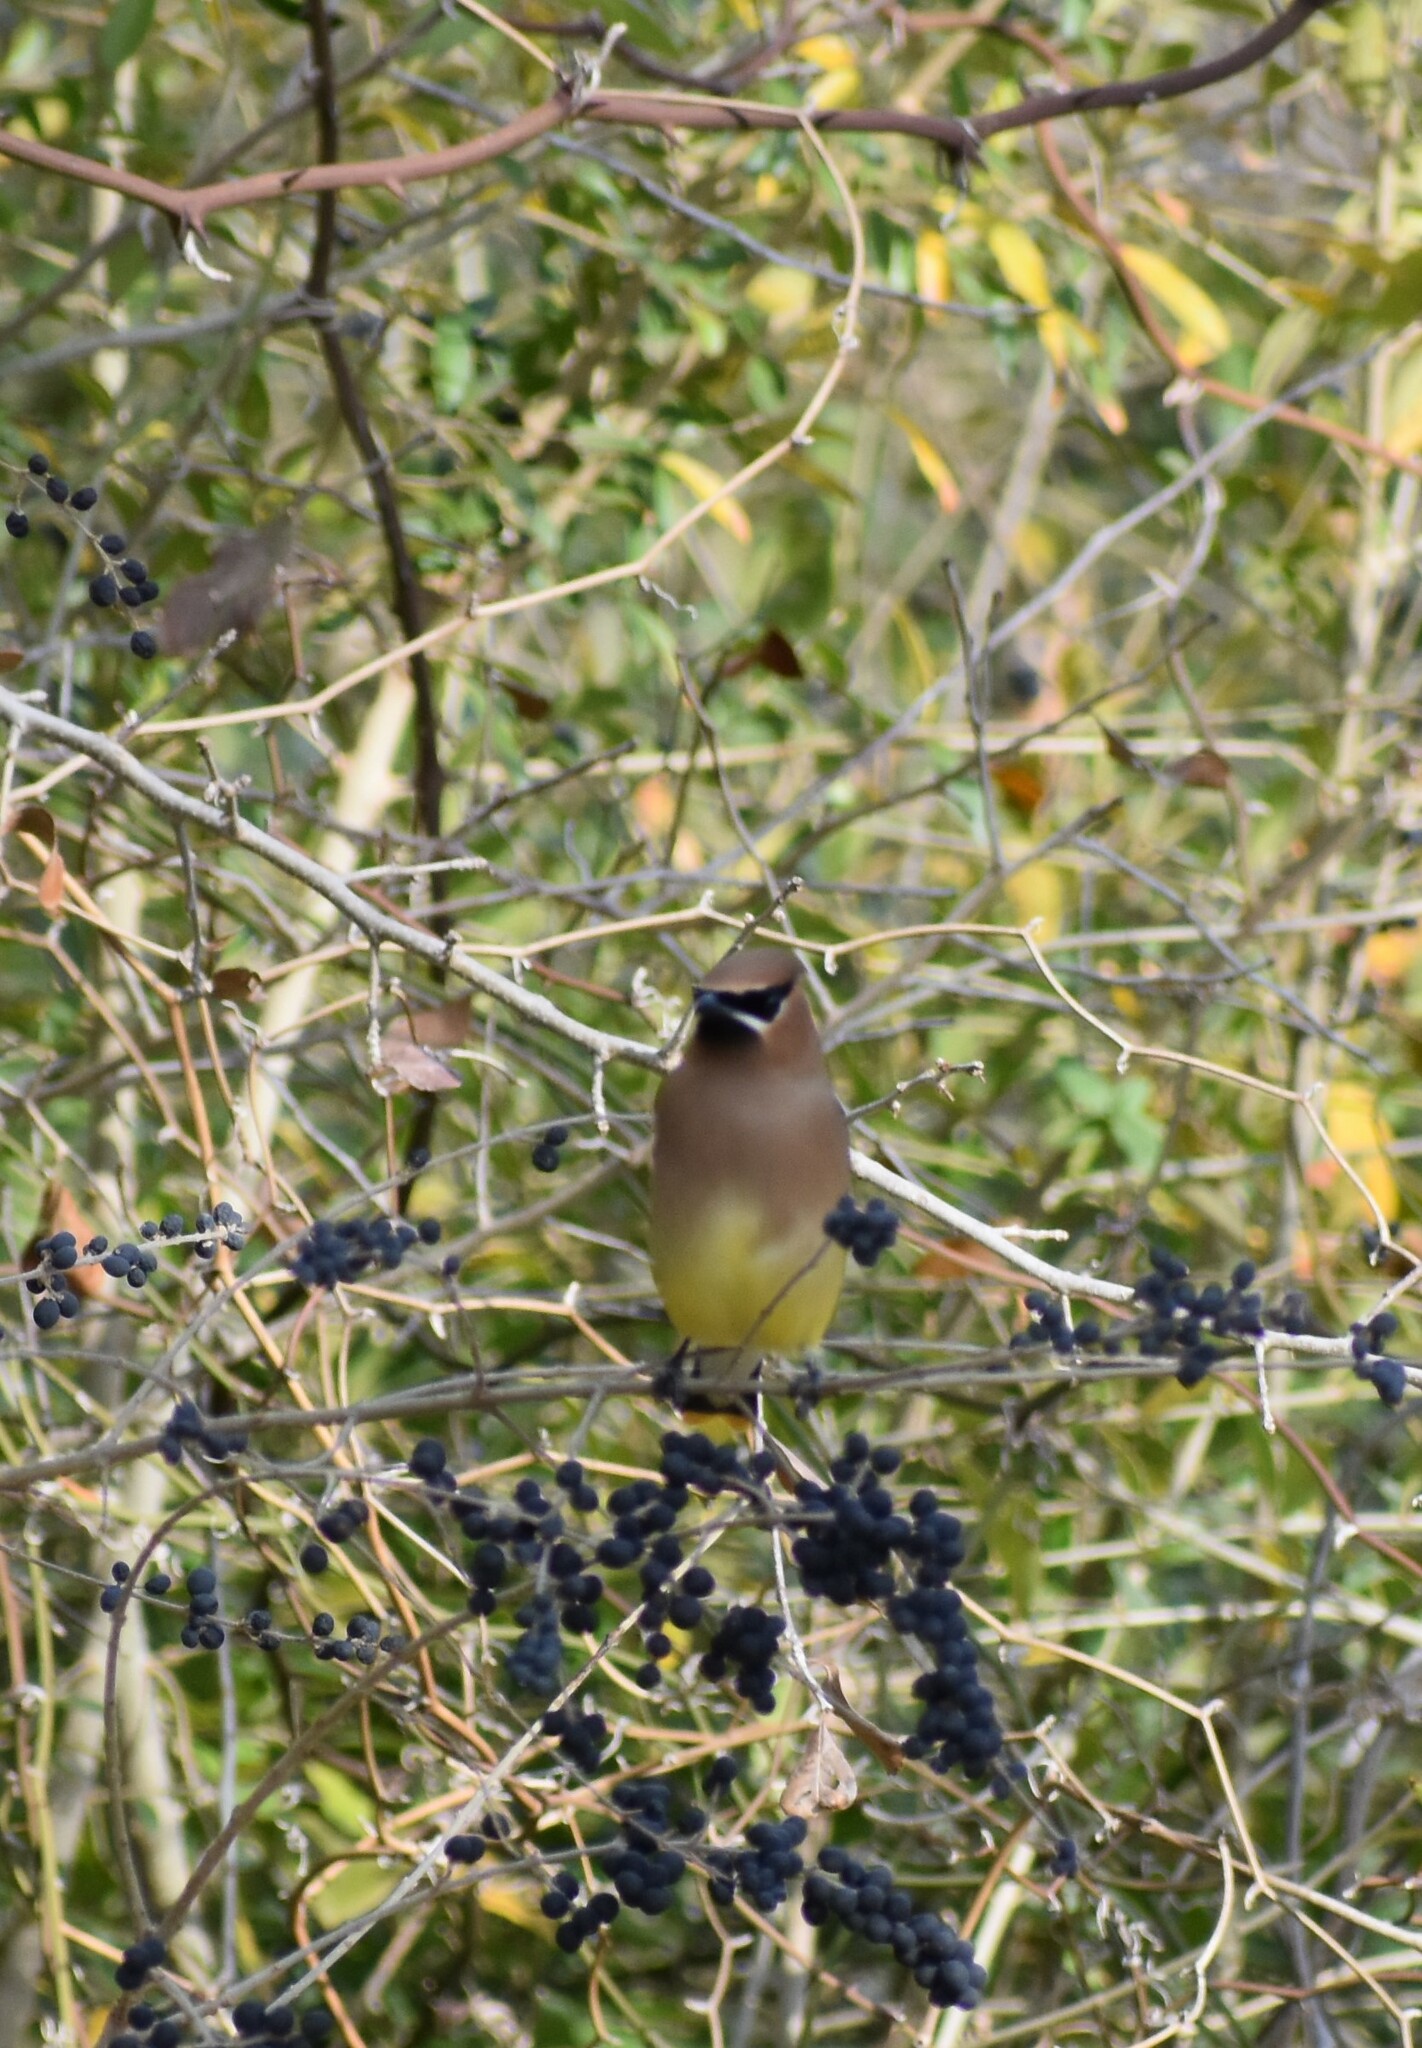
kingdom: Animalia
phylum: Chordata
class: Aves
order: Passeriformes
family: Bombycillidae
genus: Bombycilla
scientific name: Bombycilla cedrorum
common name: Cedar waxwing
